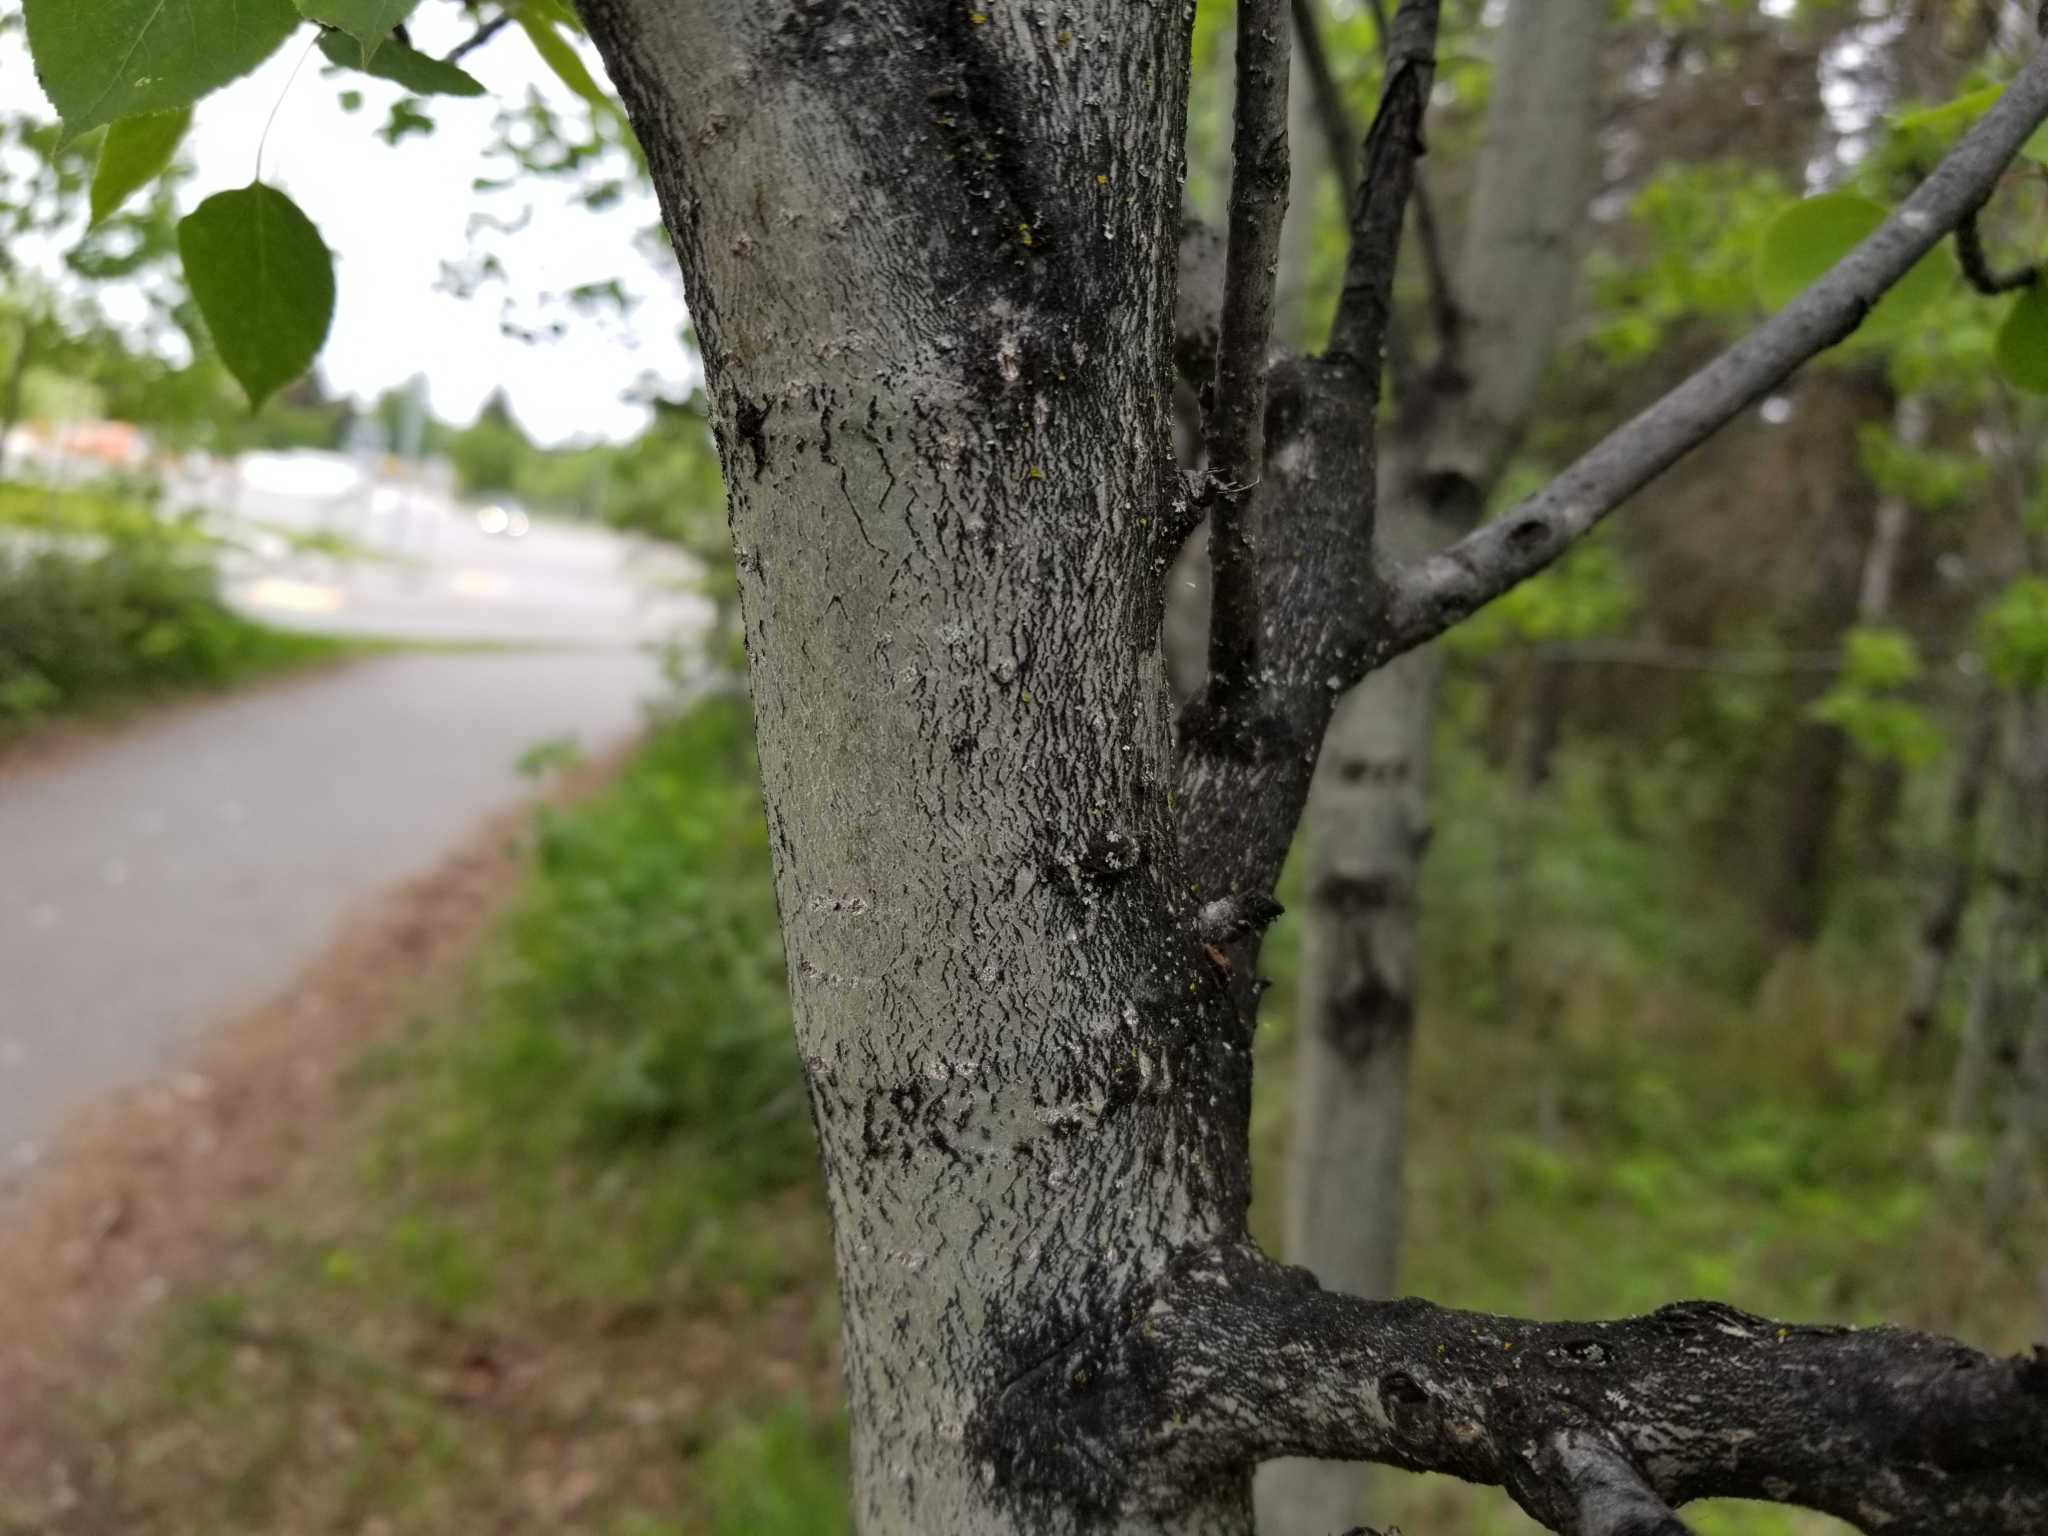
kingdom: Plantae
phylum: Tracheophyta
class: Magnoliopsida
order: Malpighiales
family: Salicaceae
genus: Populus
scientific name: Populus tremuloides
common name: Quaking aspen
